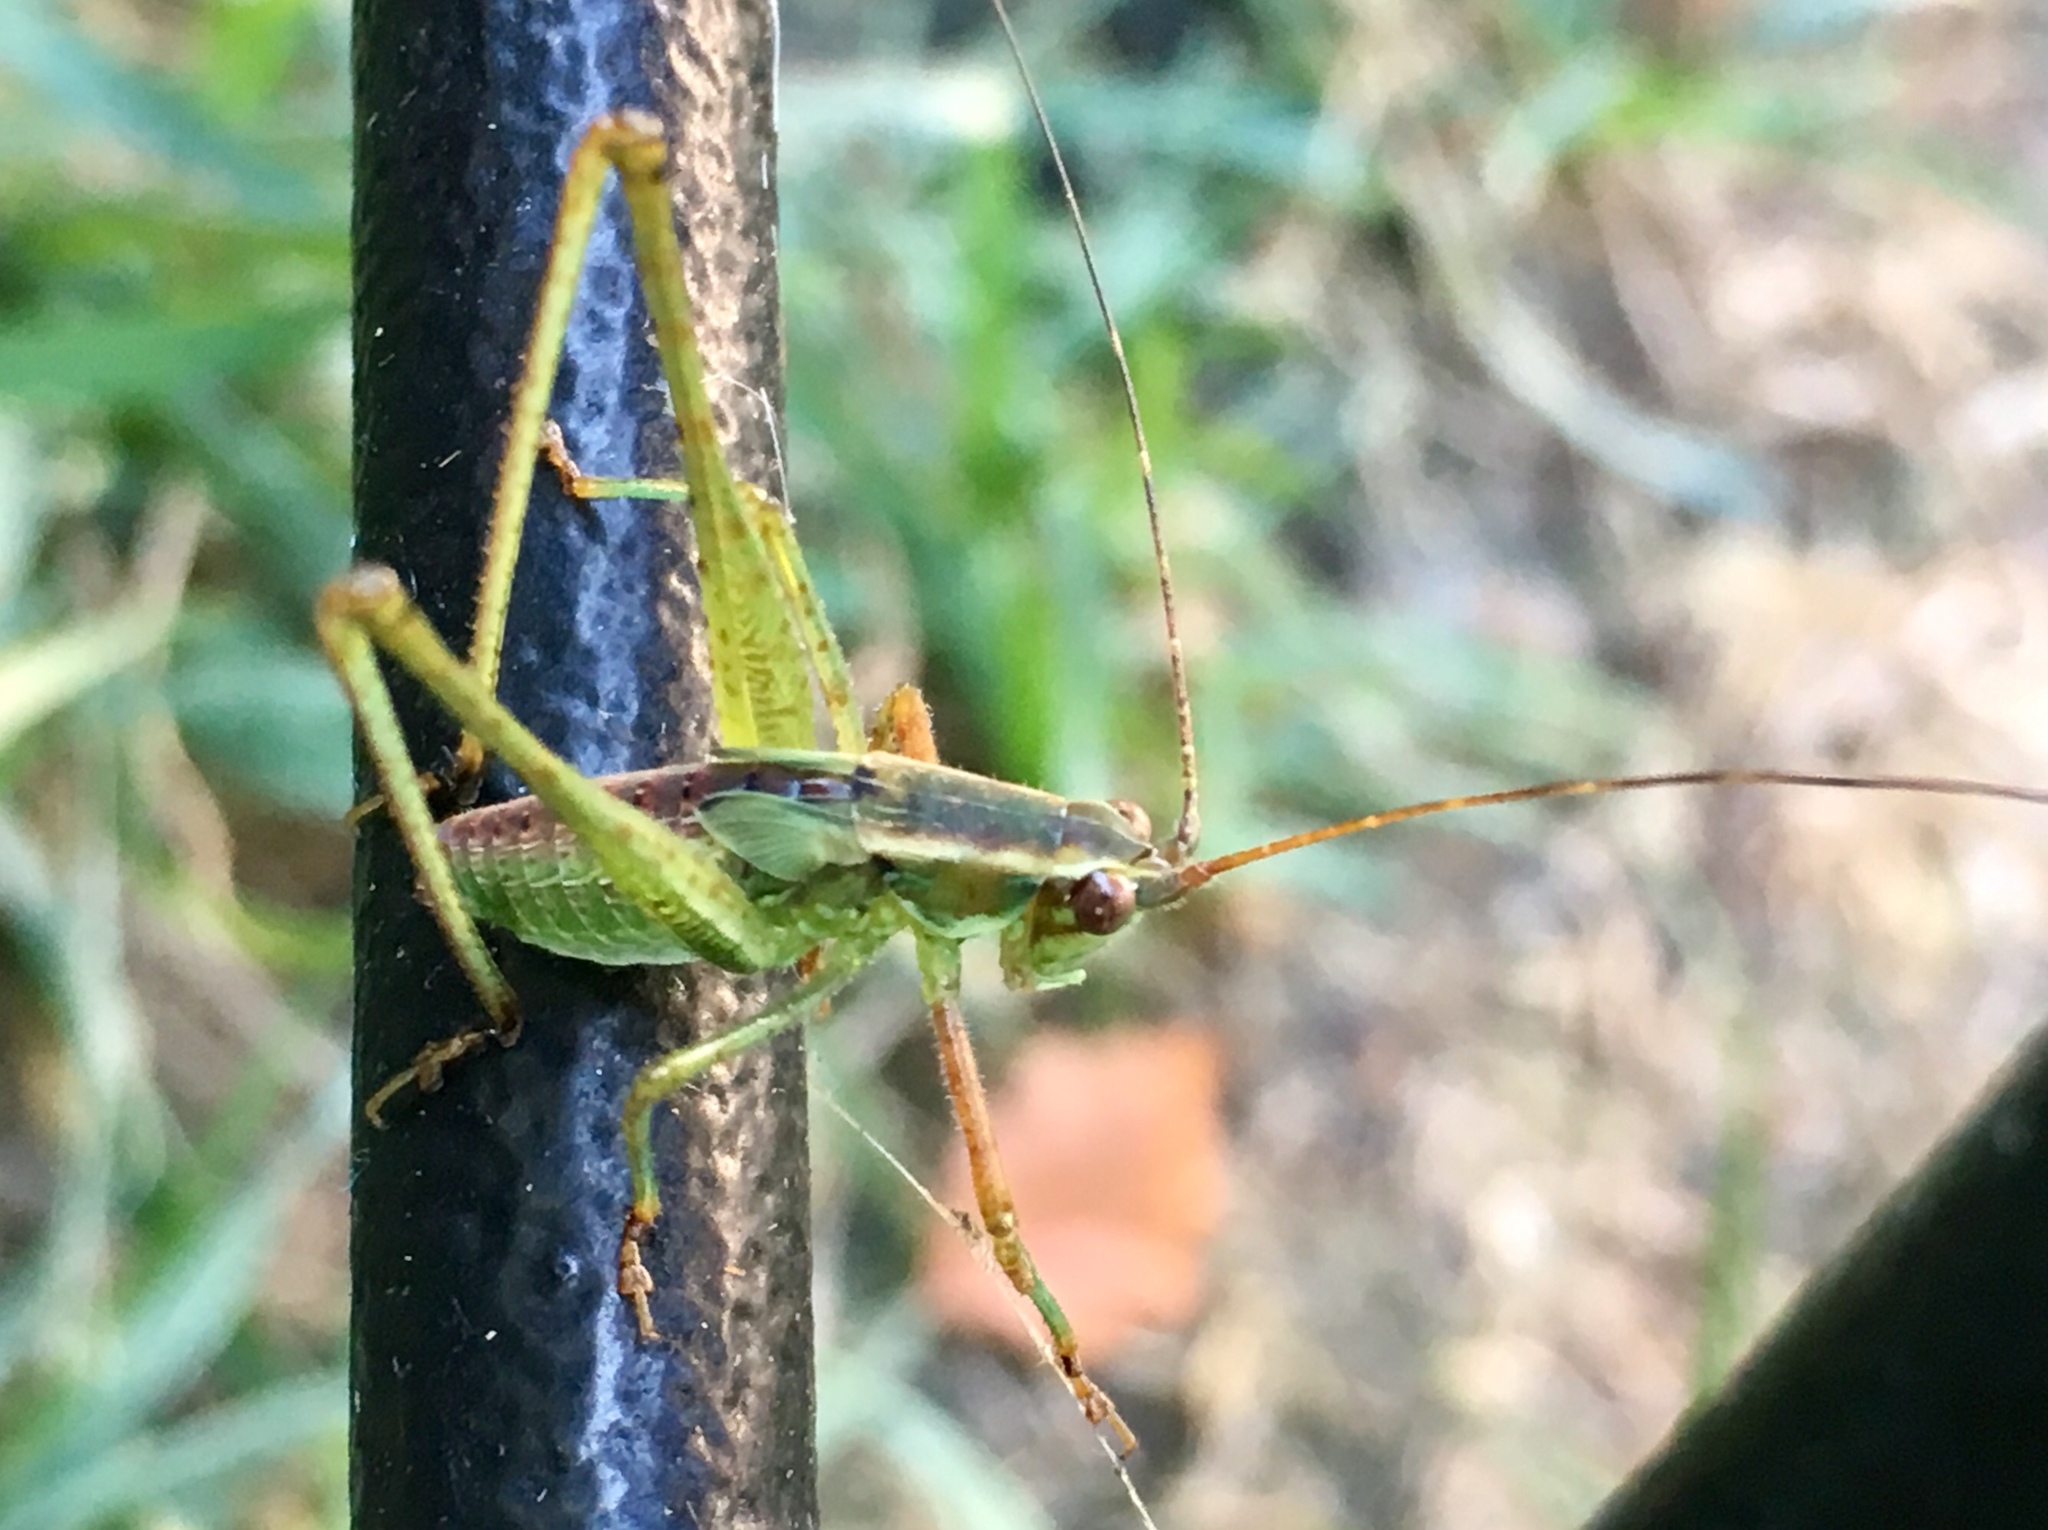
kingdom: Animalia
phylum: Arthropoda
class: Insecta
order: Orthoptera
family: Tettigoniidae
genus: Scudderia
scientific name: Scudderia
